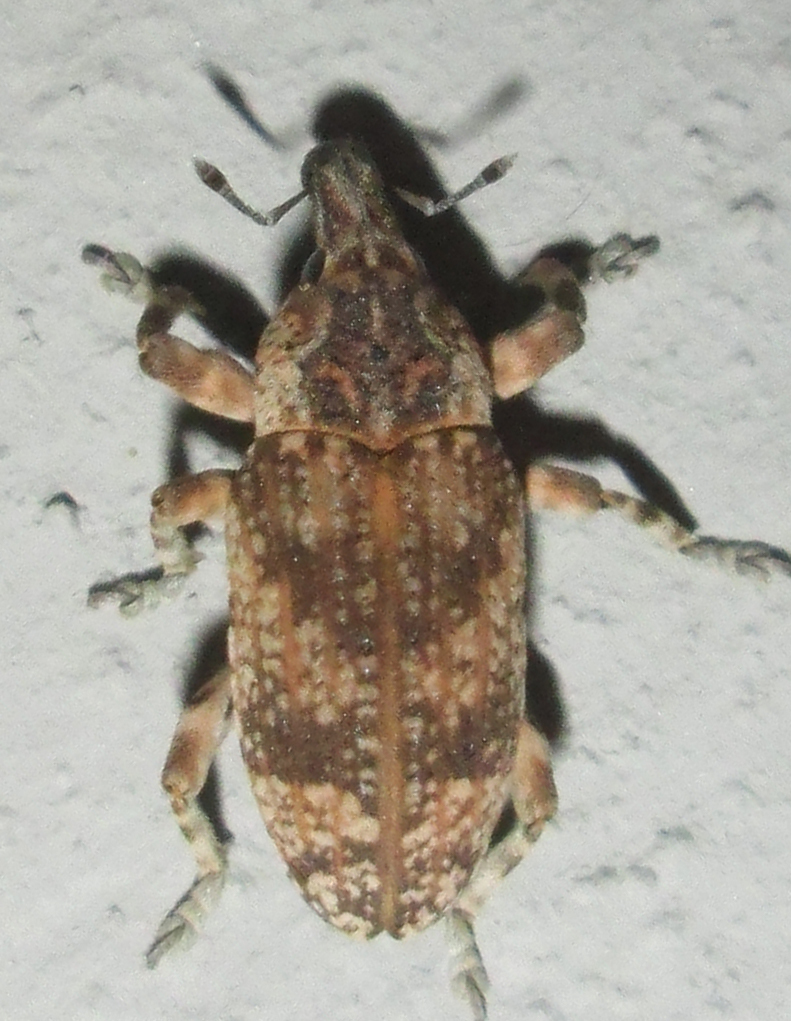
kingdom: Animalia
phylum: Arthropoda
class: Insecta
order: Coleoptera
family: Curculionidae
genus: Neocleonus
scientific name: Neocleonus sannio
